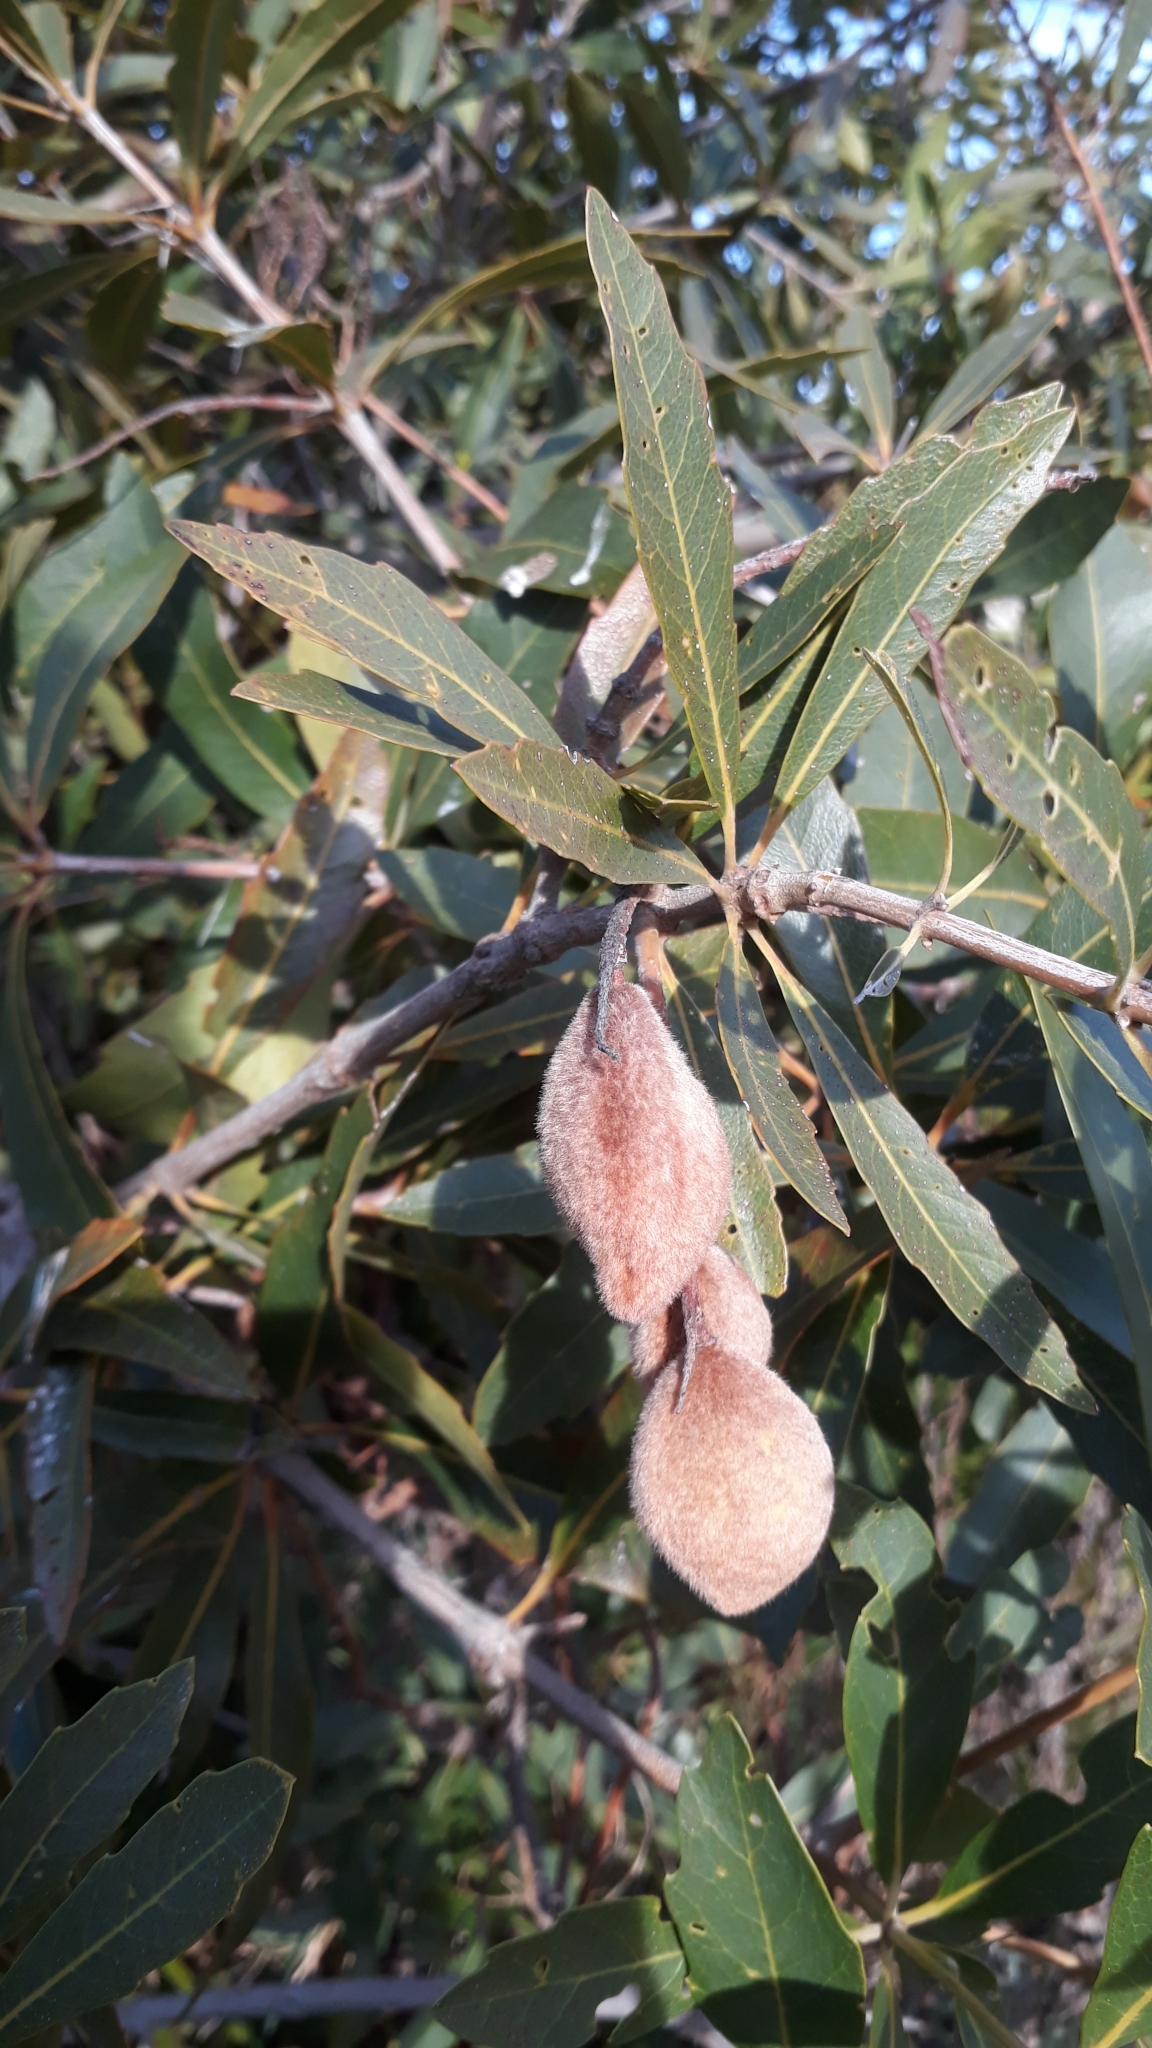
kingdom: Plantae
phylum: Tracheophyta
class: Magnoliopsida
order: Proteales
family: Proteaceae
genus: Brabejum
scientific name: Brabejum stellatifolium
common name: Wild almond
